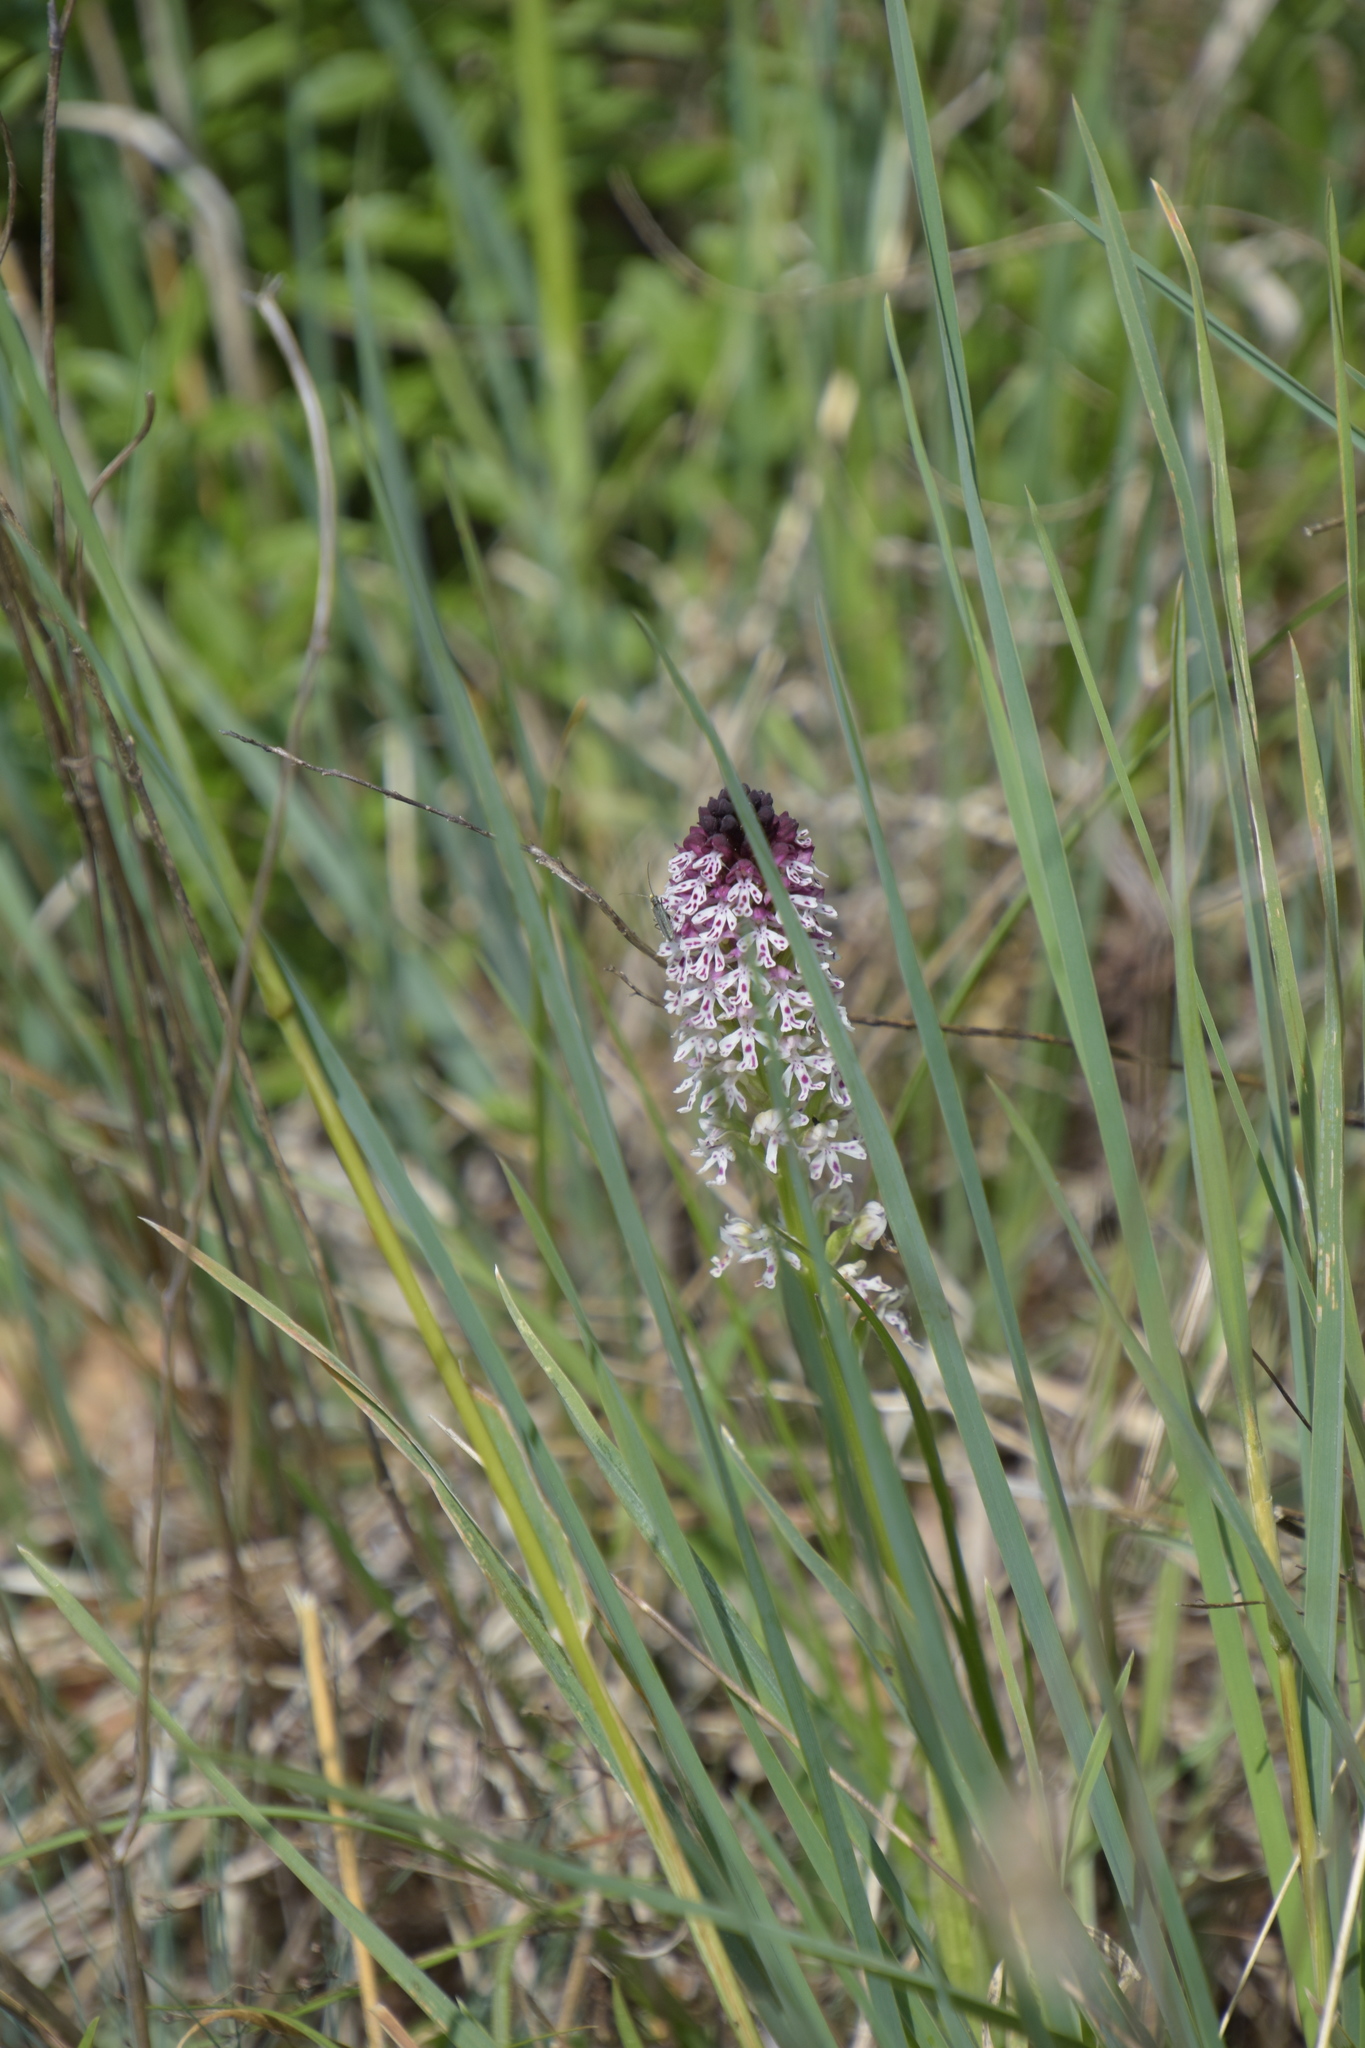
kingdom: Plantae
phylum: Tracheophyta
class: Liliopsida
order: Asparagales
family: Orchidaceae
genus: Neotinea
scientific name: Neotinea ustulata
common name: Burnt orchid
